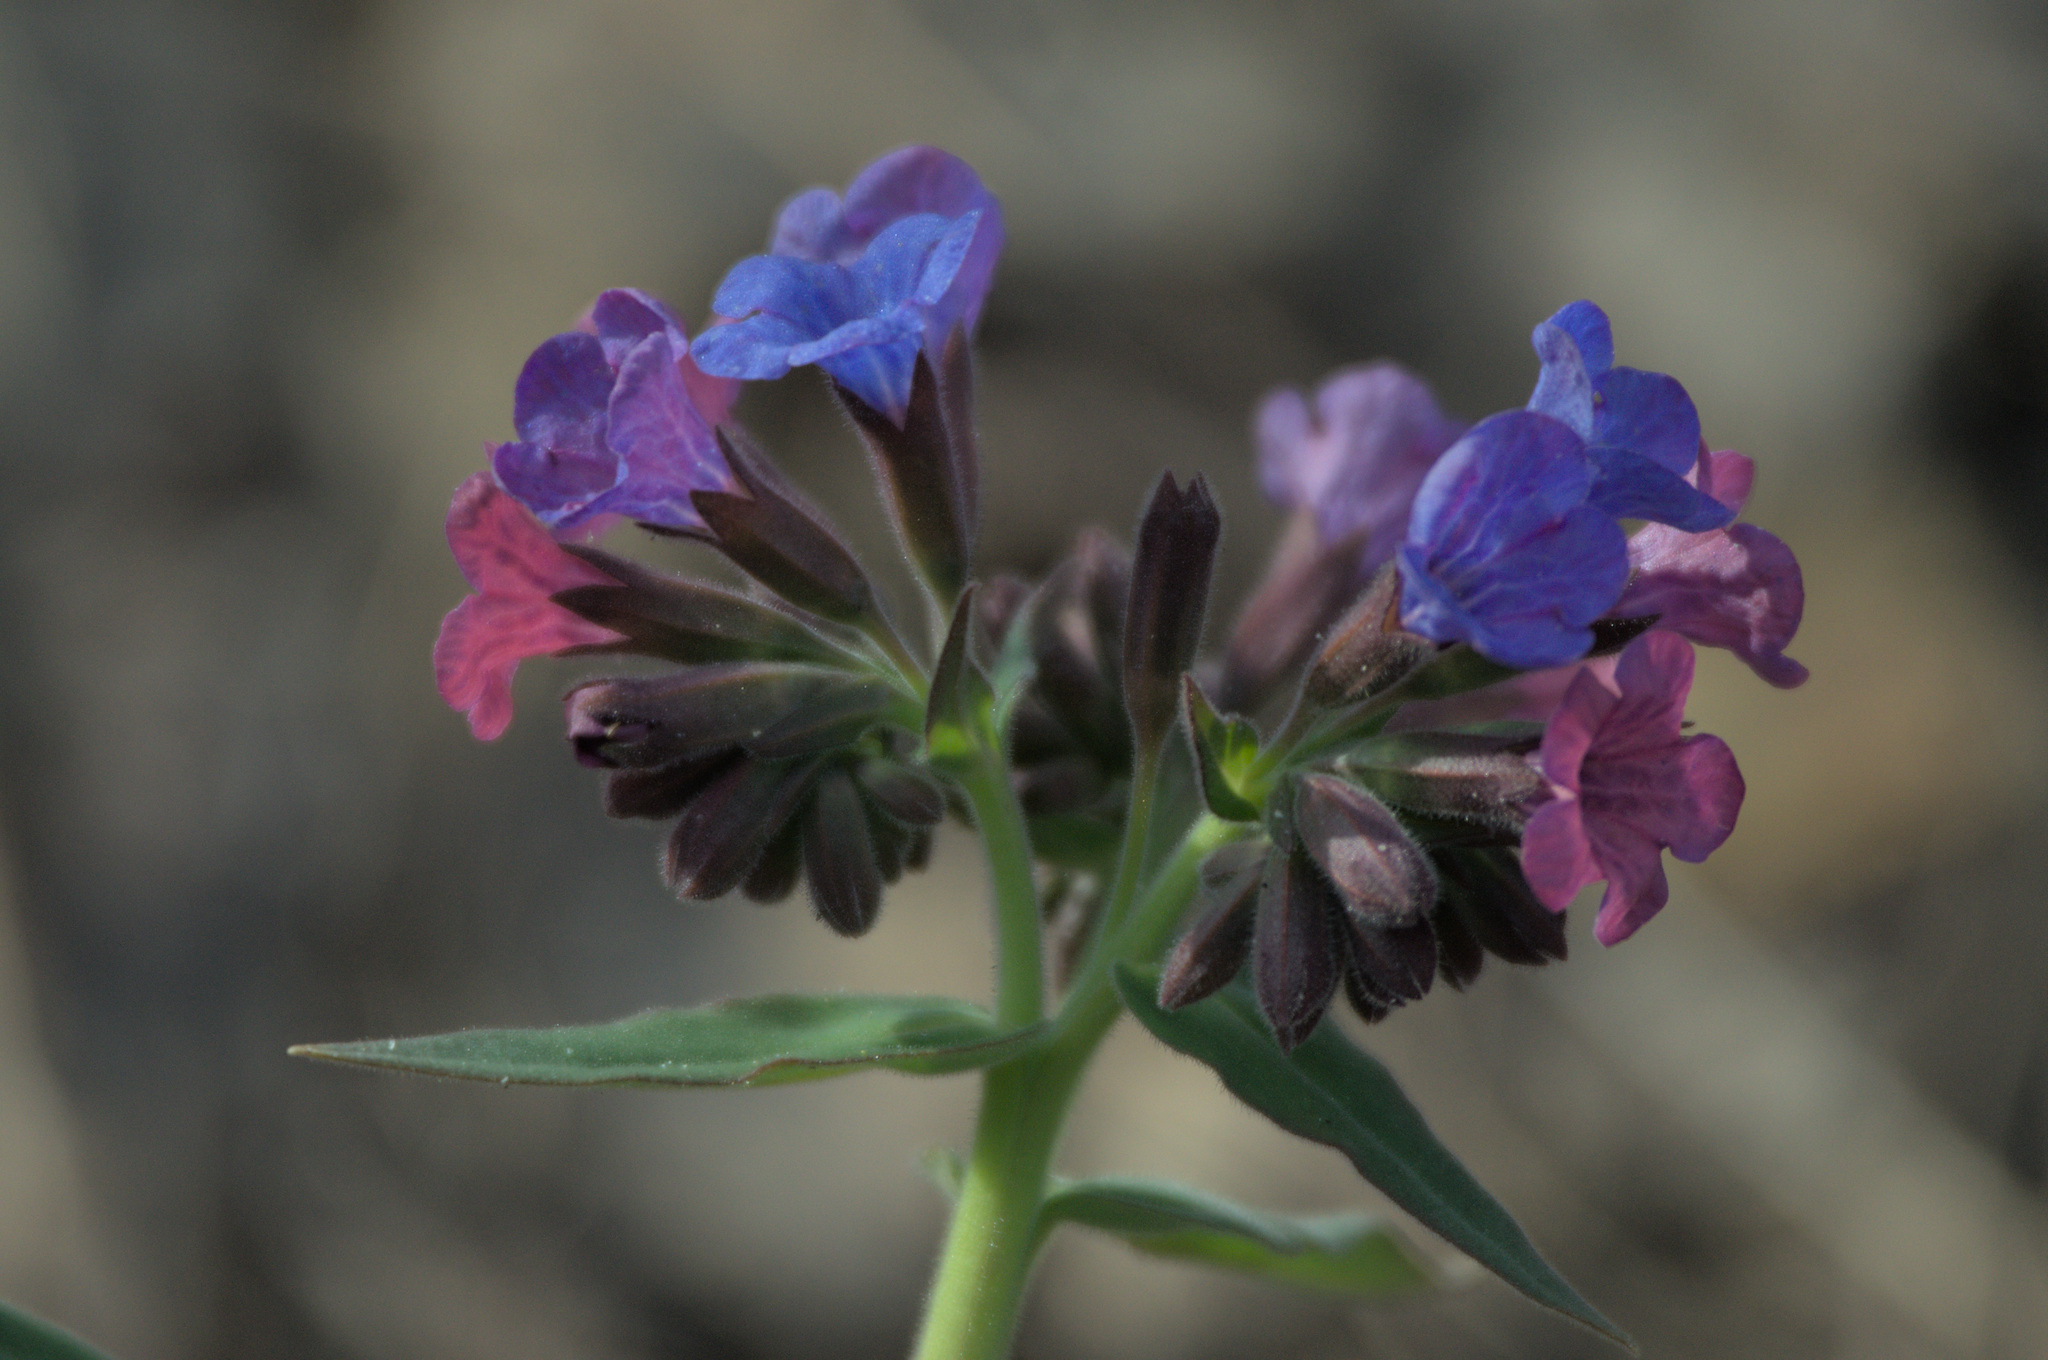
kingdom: Plantae
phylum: Tracheophyta
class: Magnoliopsida
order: Boraginales
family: Boraginaceae
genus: Pulmonaria
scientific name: Pulmonaria mollis
